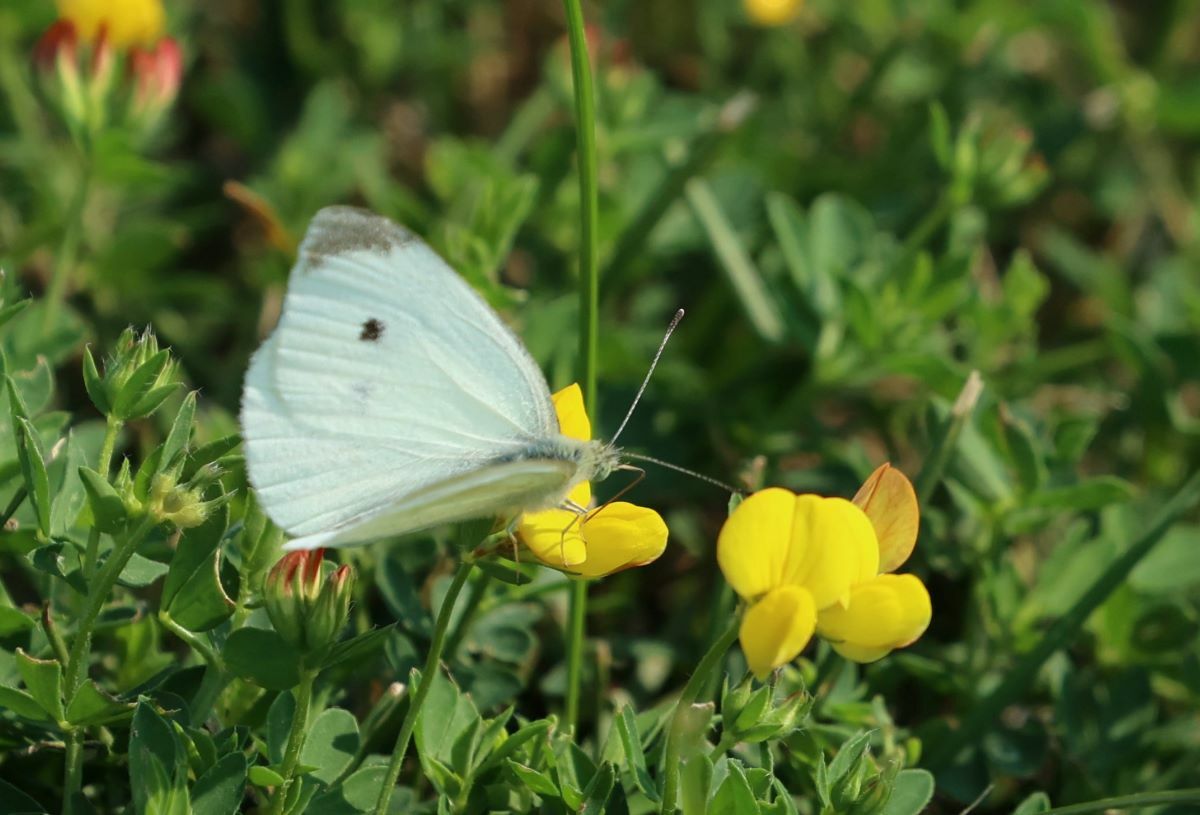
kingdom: Animalia
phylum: Arthropoda
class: Insecta
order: Lepidoptera
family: Pieridae
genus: Pieris
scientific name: Pieris rapae
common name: Small white
